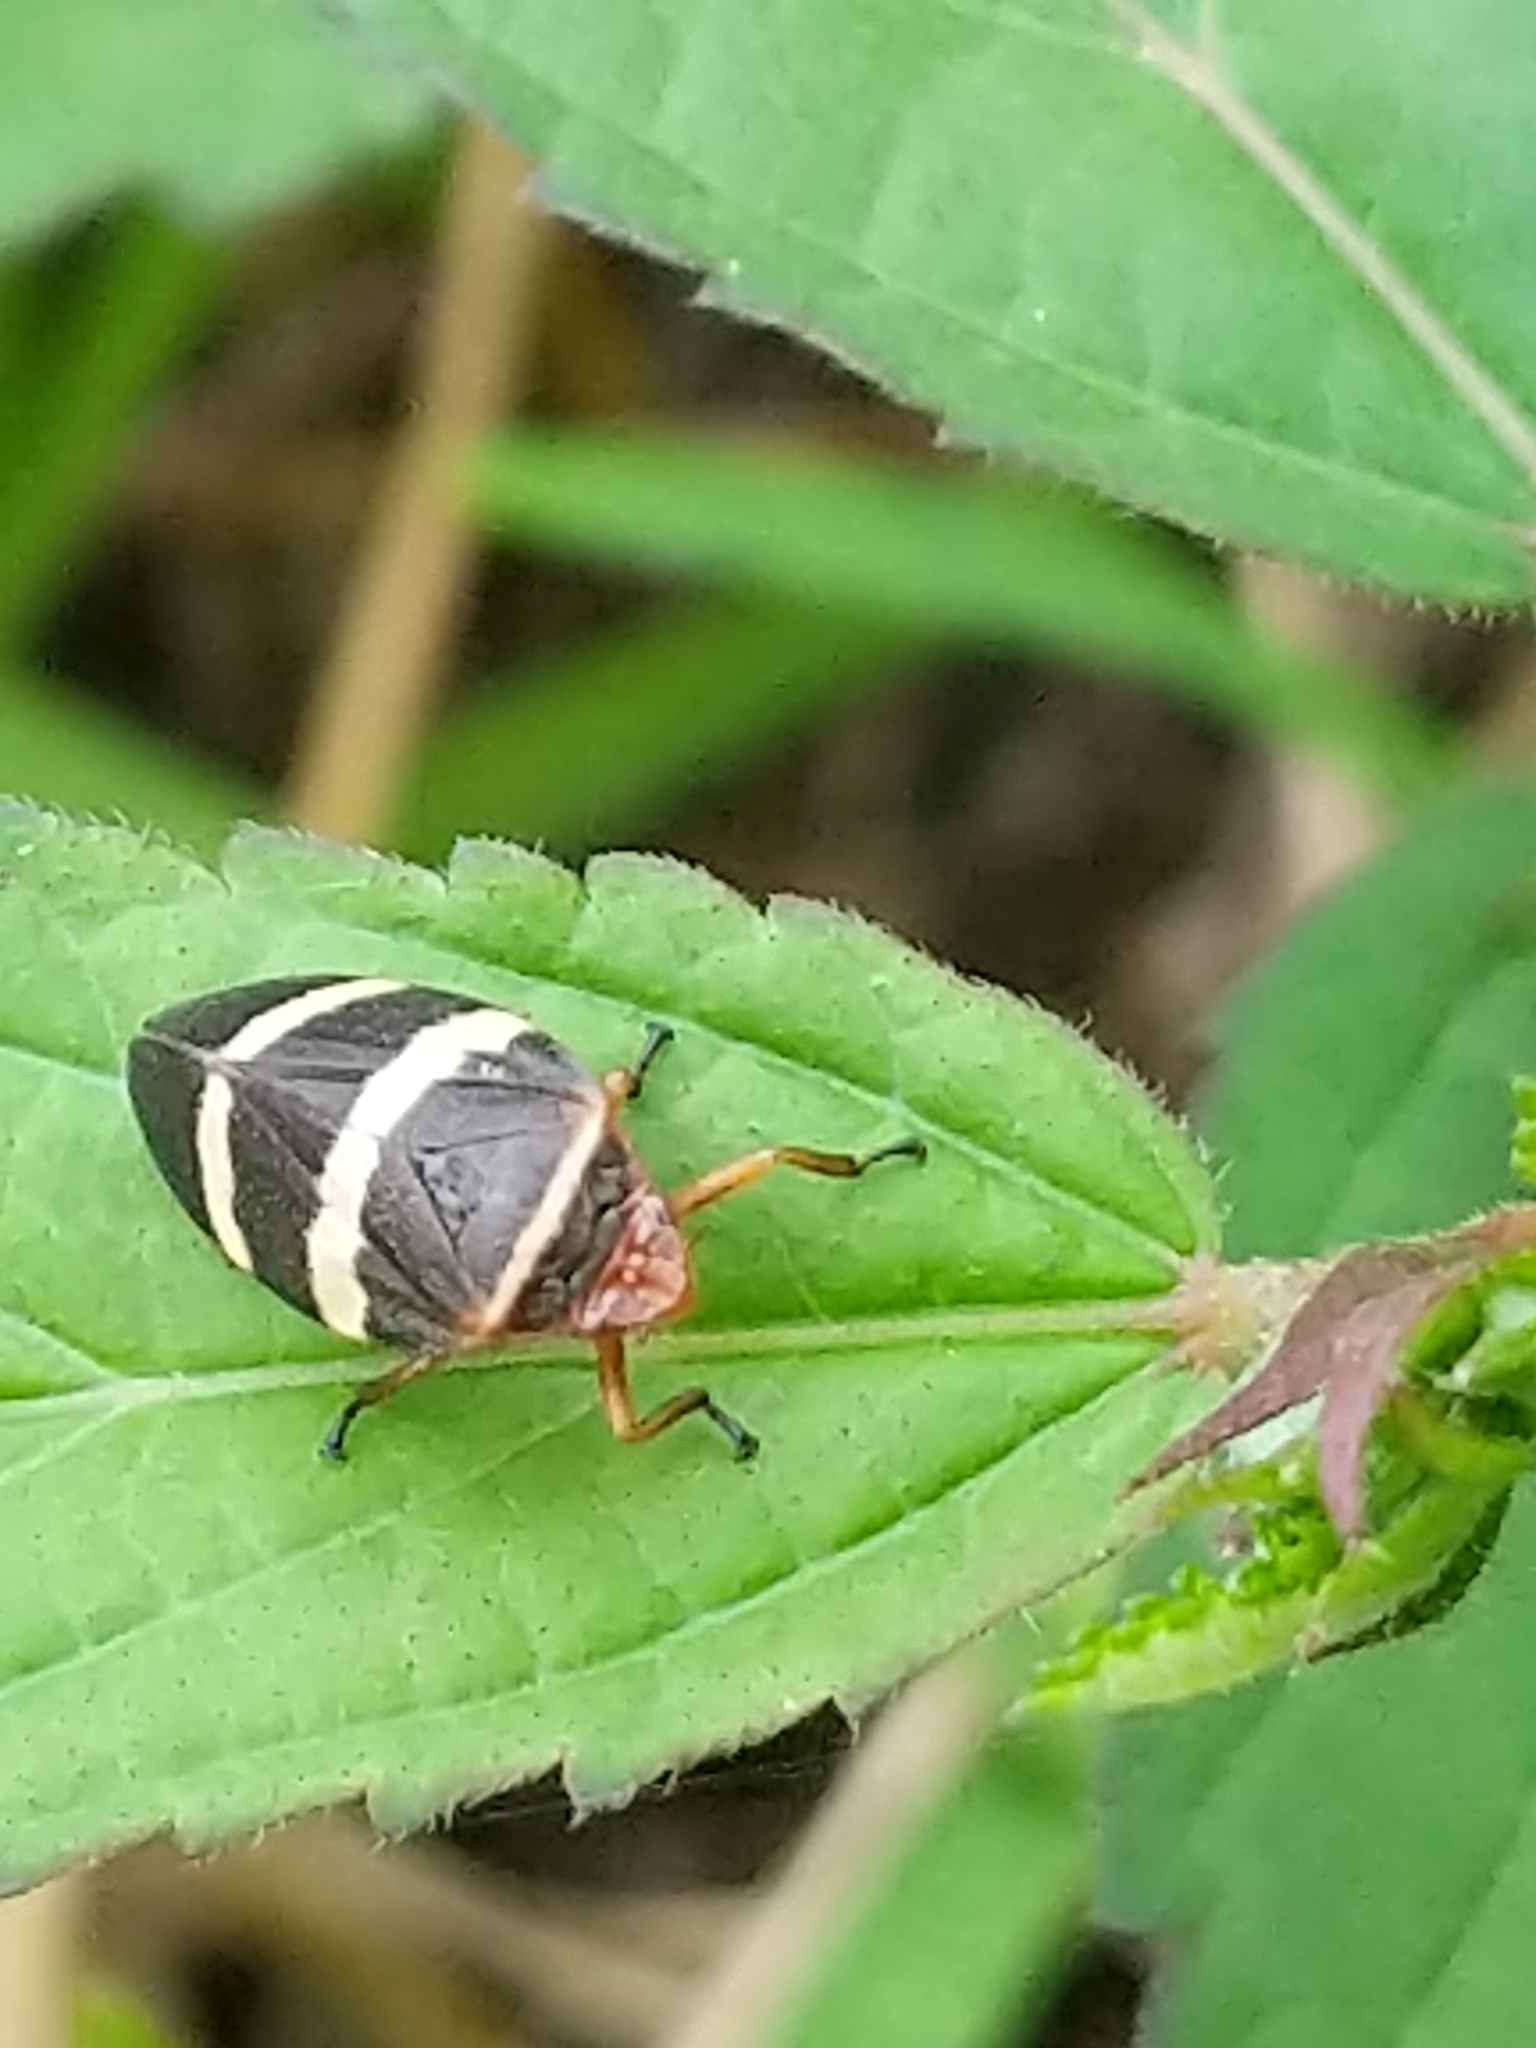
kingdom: Animalia
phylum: Arthropoda
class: Insecta
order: Hemiptera
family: Cercopidae
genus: Prosapia
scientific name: Prosapia simulans
